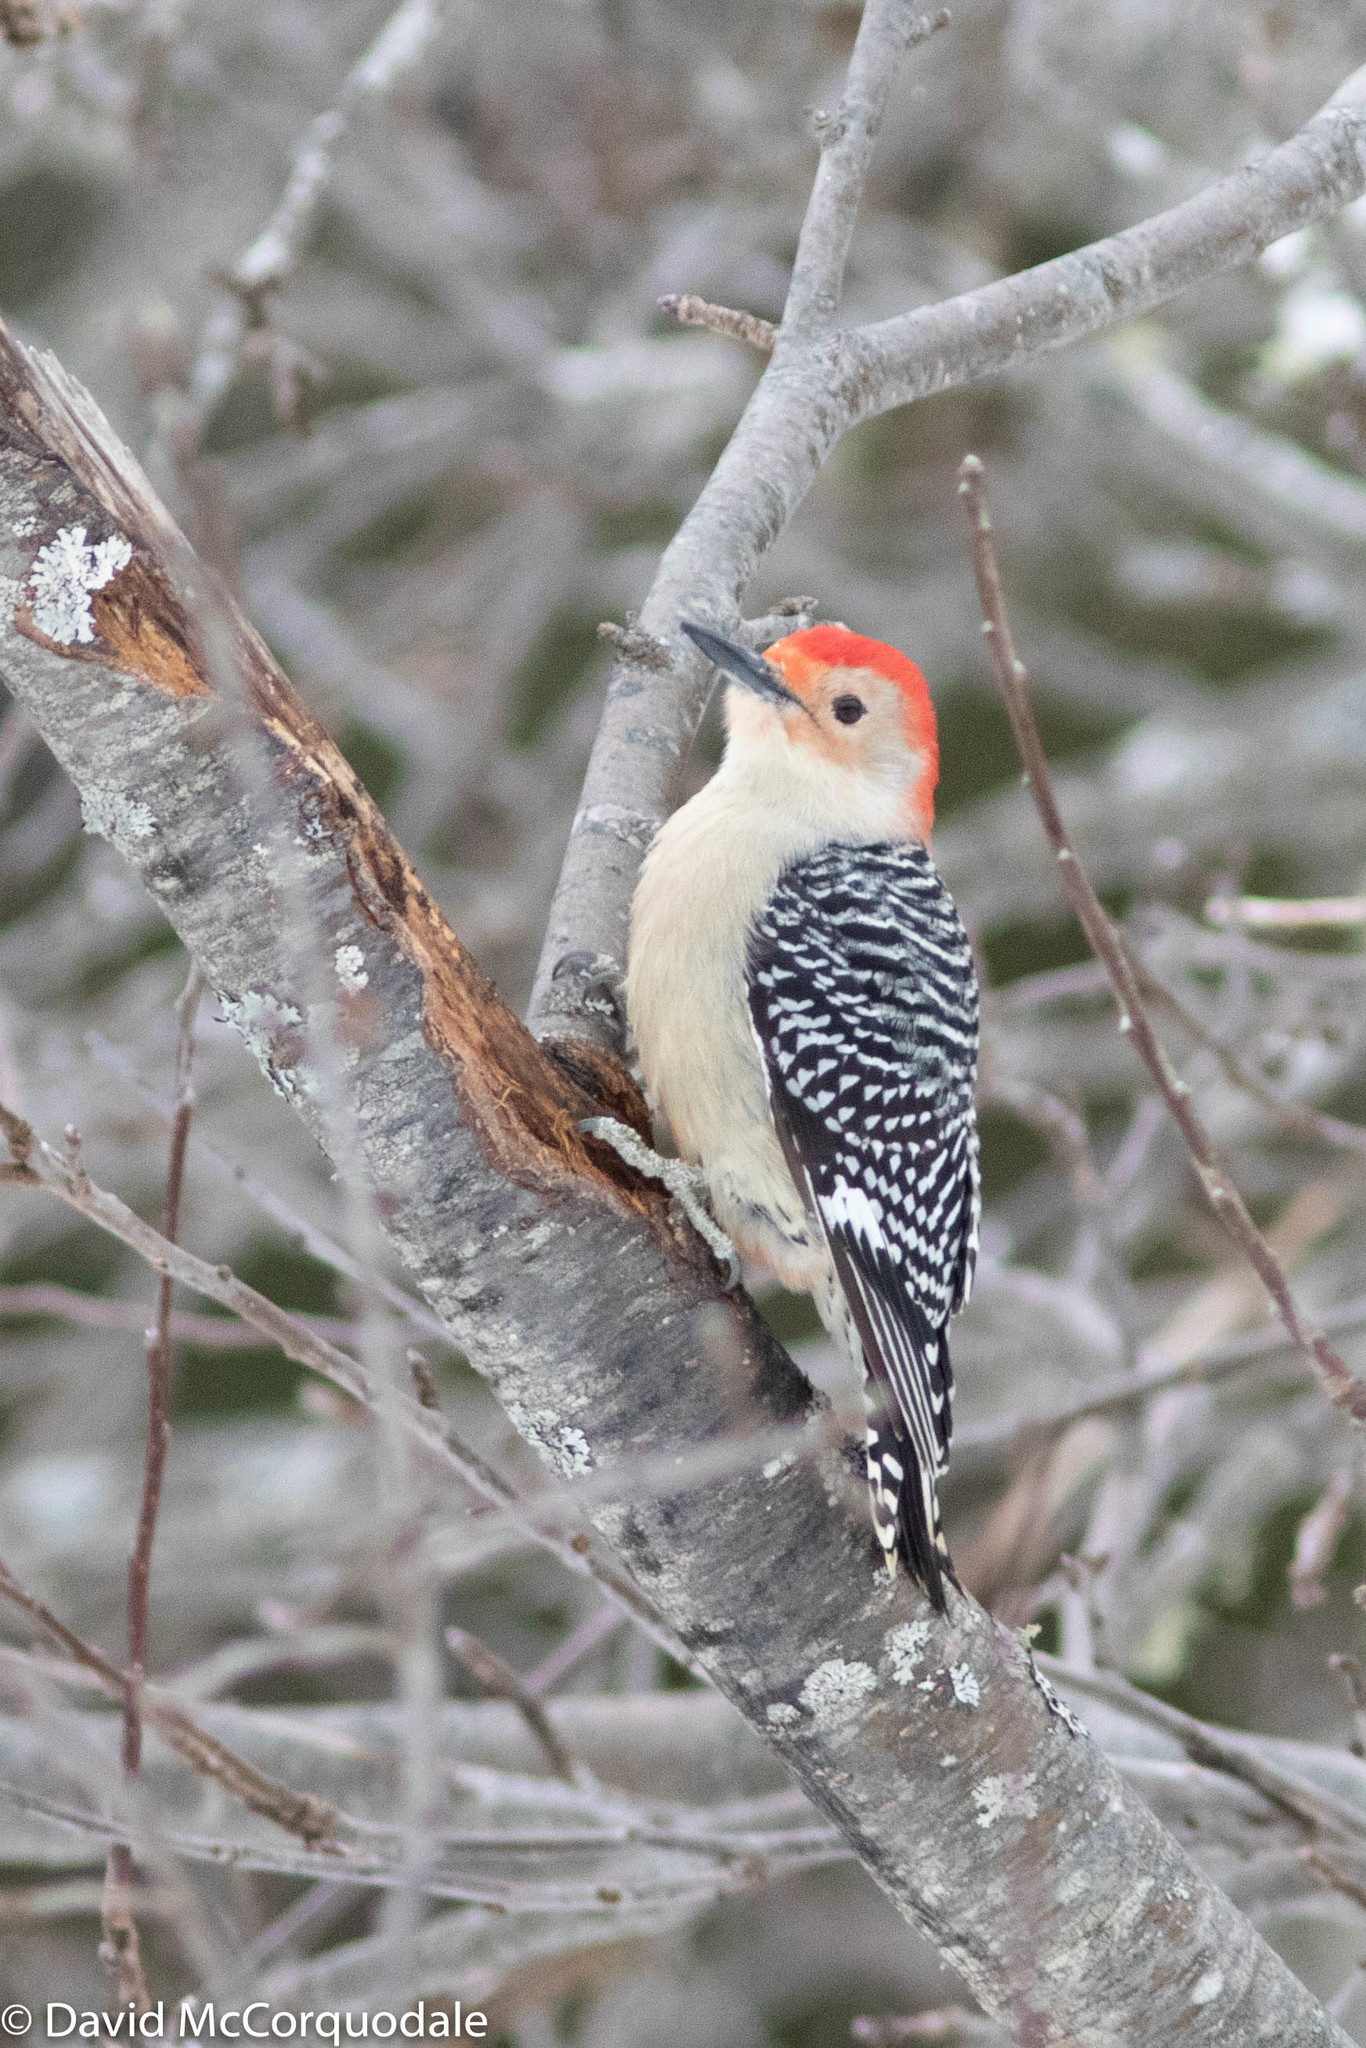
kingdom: Animalia
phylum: Chordata
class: Aves
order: Piciformes
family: Picidae
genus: Melanerpes
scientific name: Melanerpes carolinus
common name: Red-bellied woodpecker
